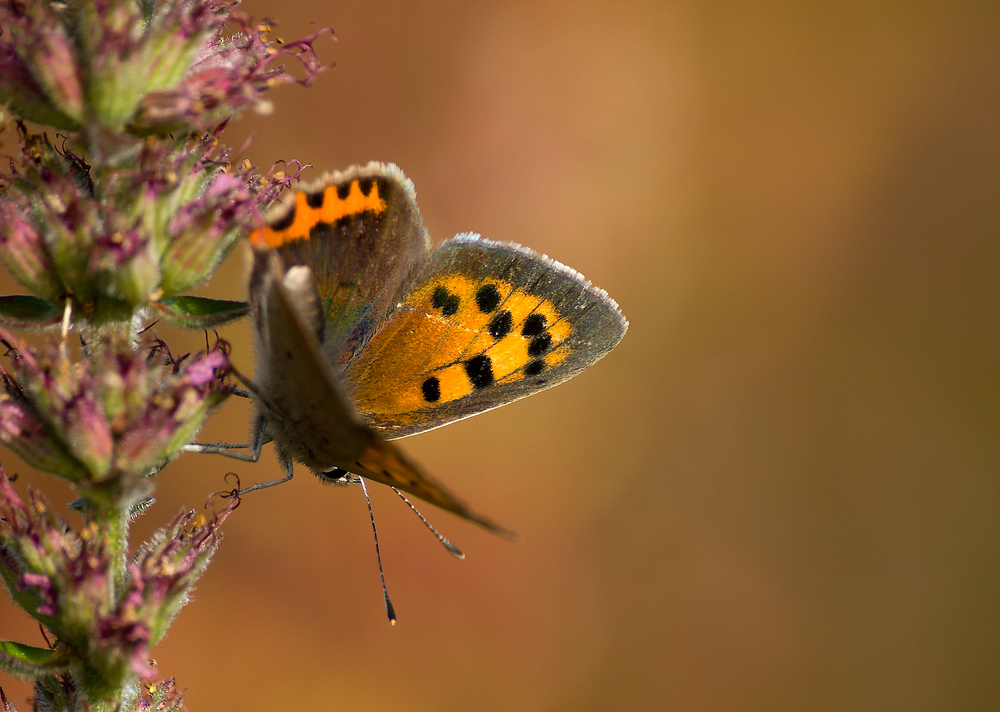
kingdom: Animalia
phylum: Arthropoda
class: Insecta
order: Lepidoptera
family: Lycaenidae
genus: Lycaena
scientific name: Lycaena phlaeas
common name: Small copper
